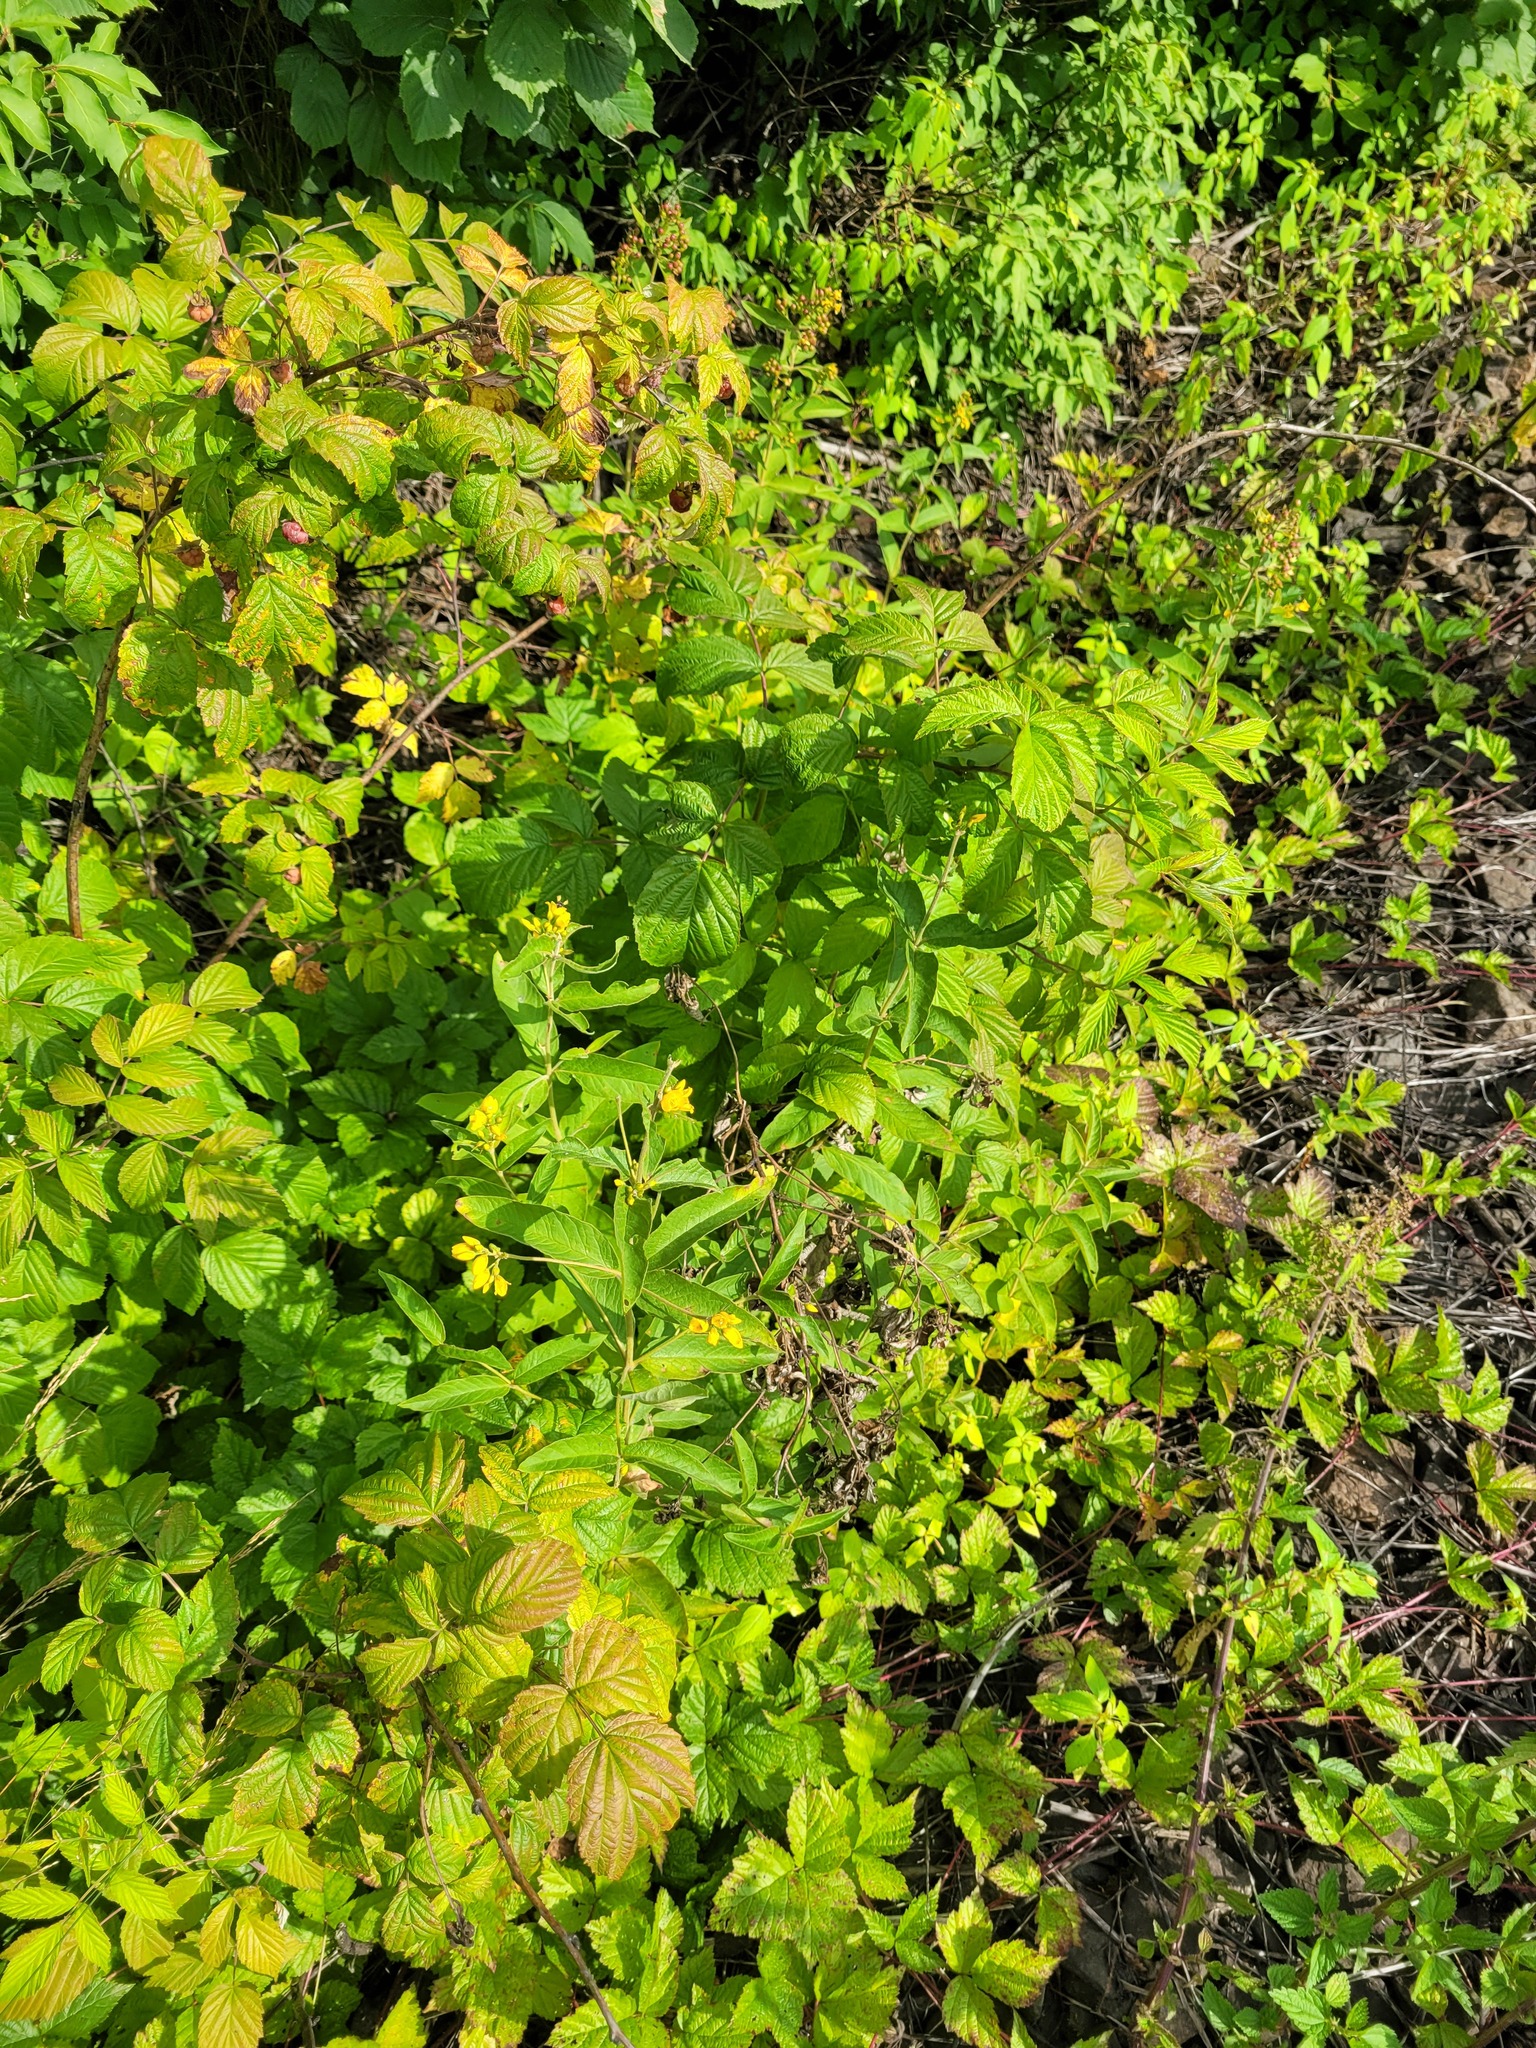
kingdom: Plantae
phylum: Tracheophyta
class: Magnoliopsida
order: Ericales
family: Primulaceae
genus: Lysimachia
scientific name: Lysimachia vulgaris
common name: Yellow loosestrife
